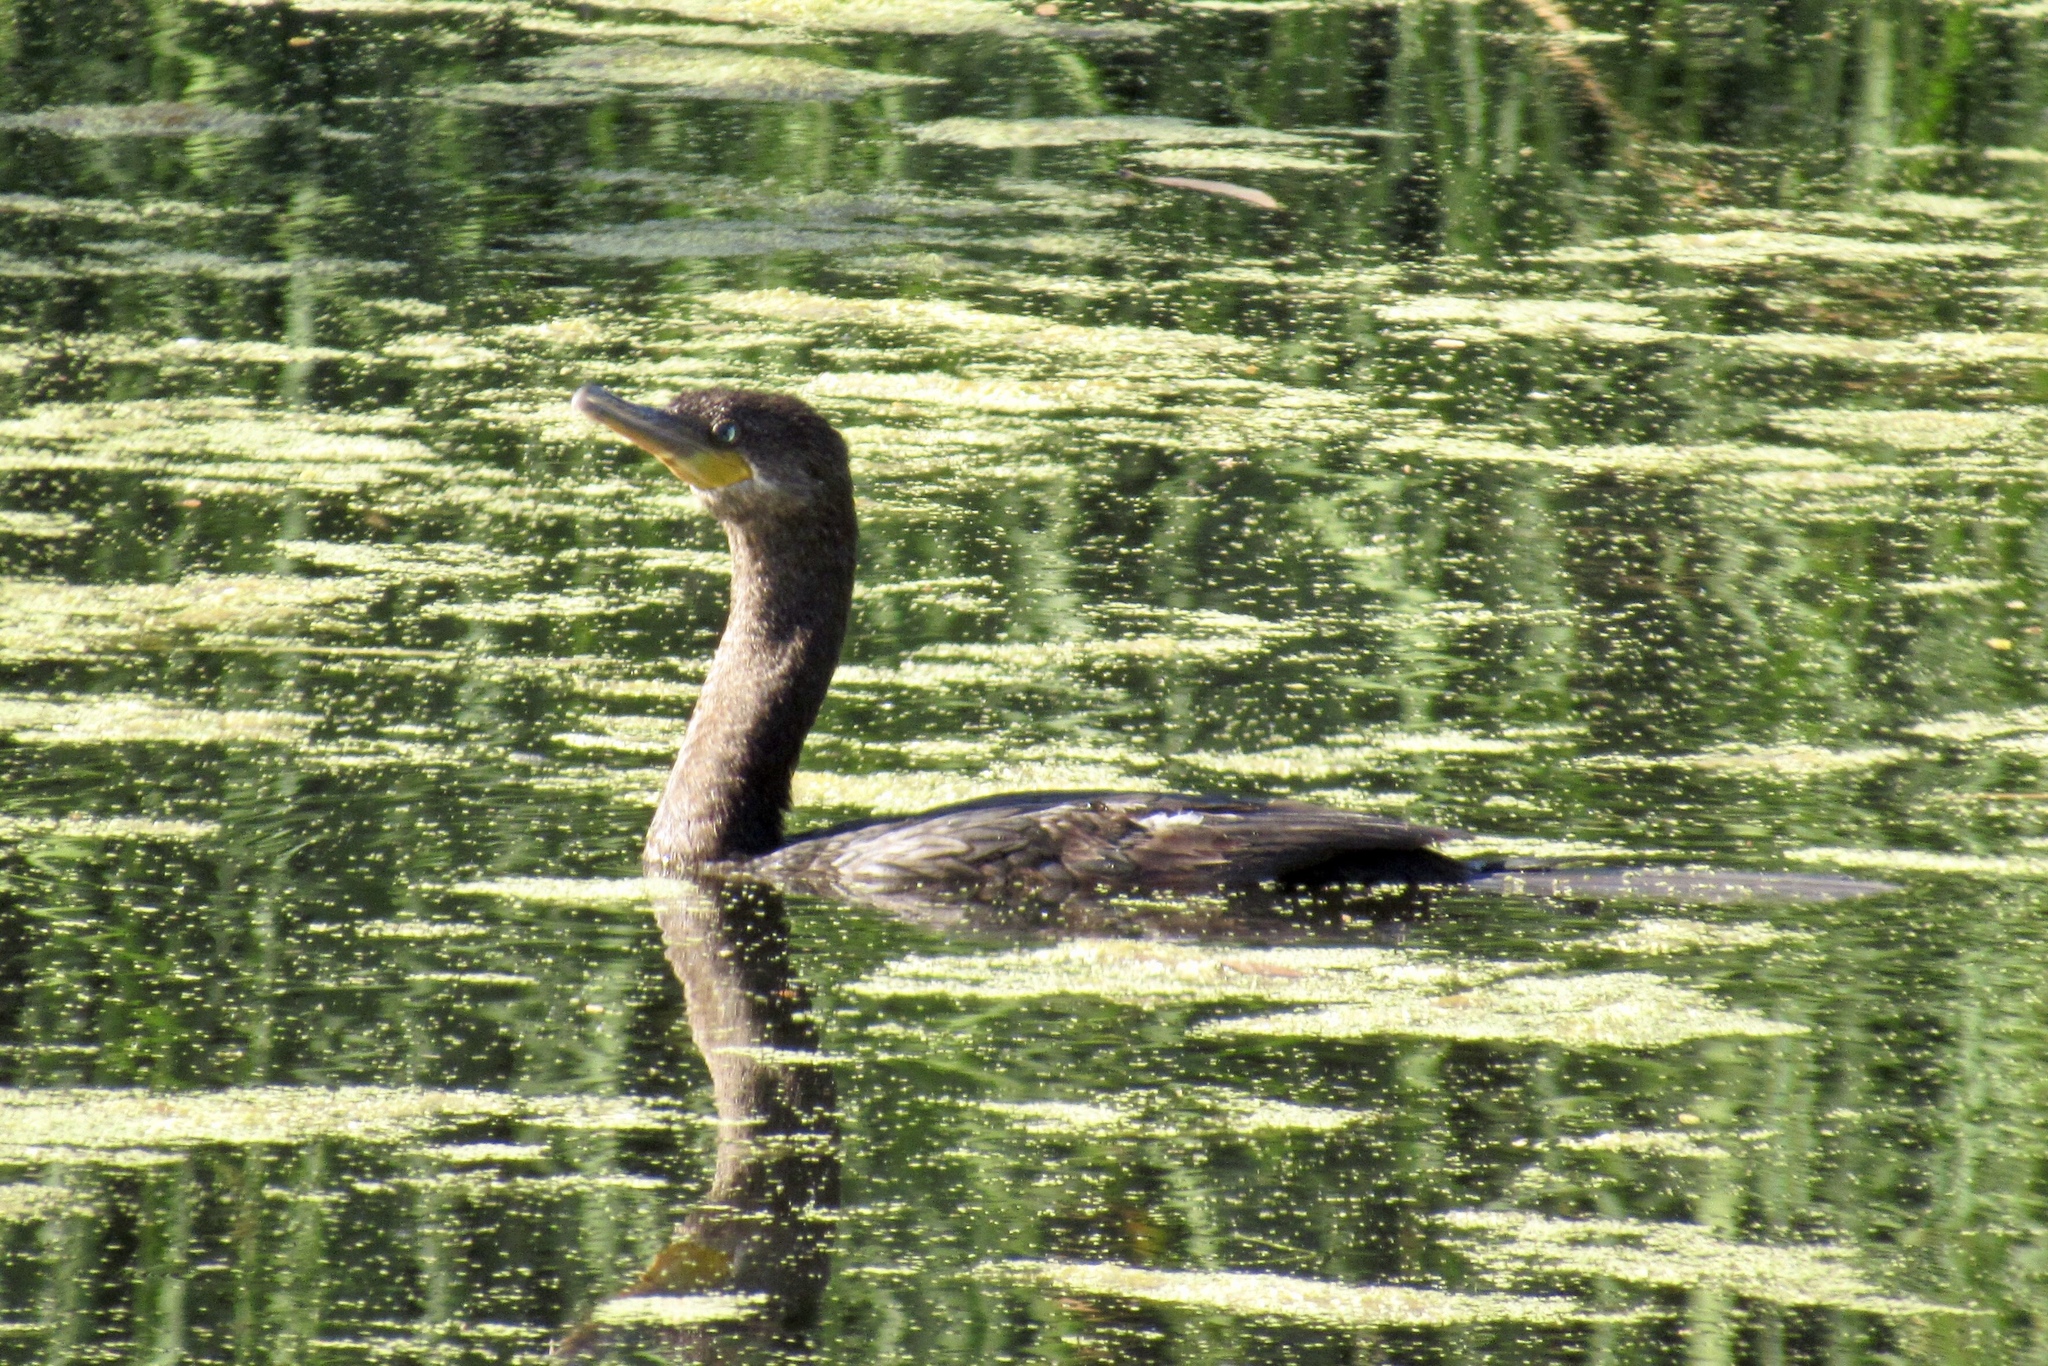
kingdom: Animalia
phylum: Chordata
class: Aves
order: Suliformes
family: Phalacrocoracidae
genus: Phalacrocorax
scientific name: Phalacrocorax brasilianus
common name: Neotropic cormorant
